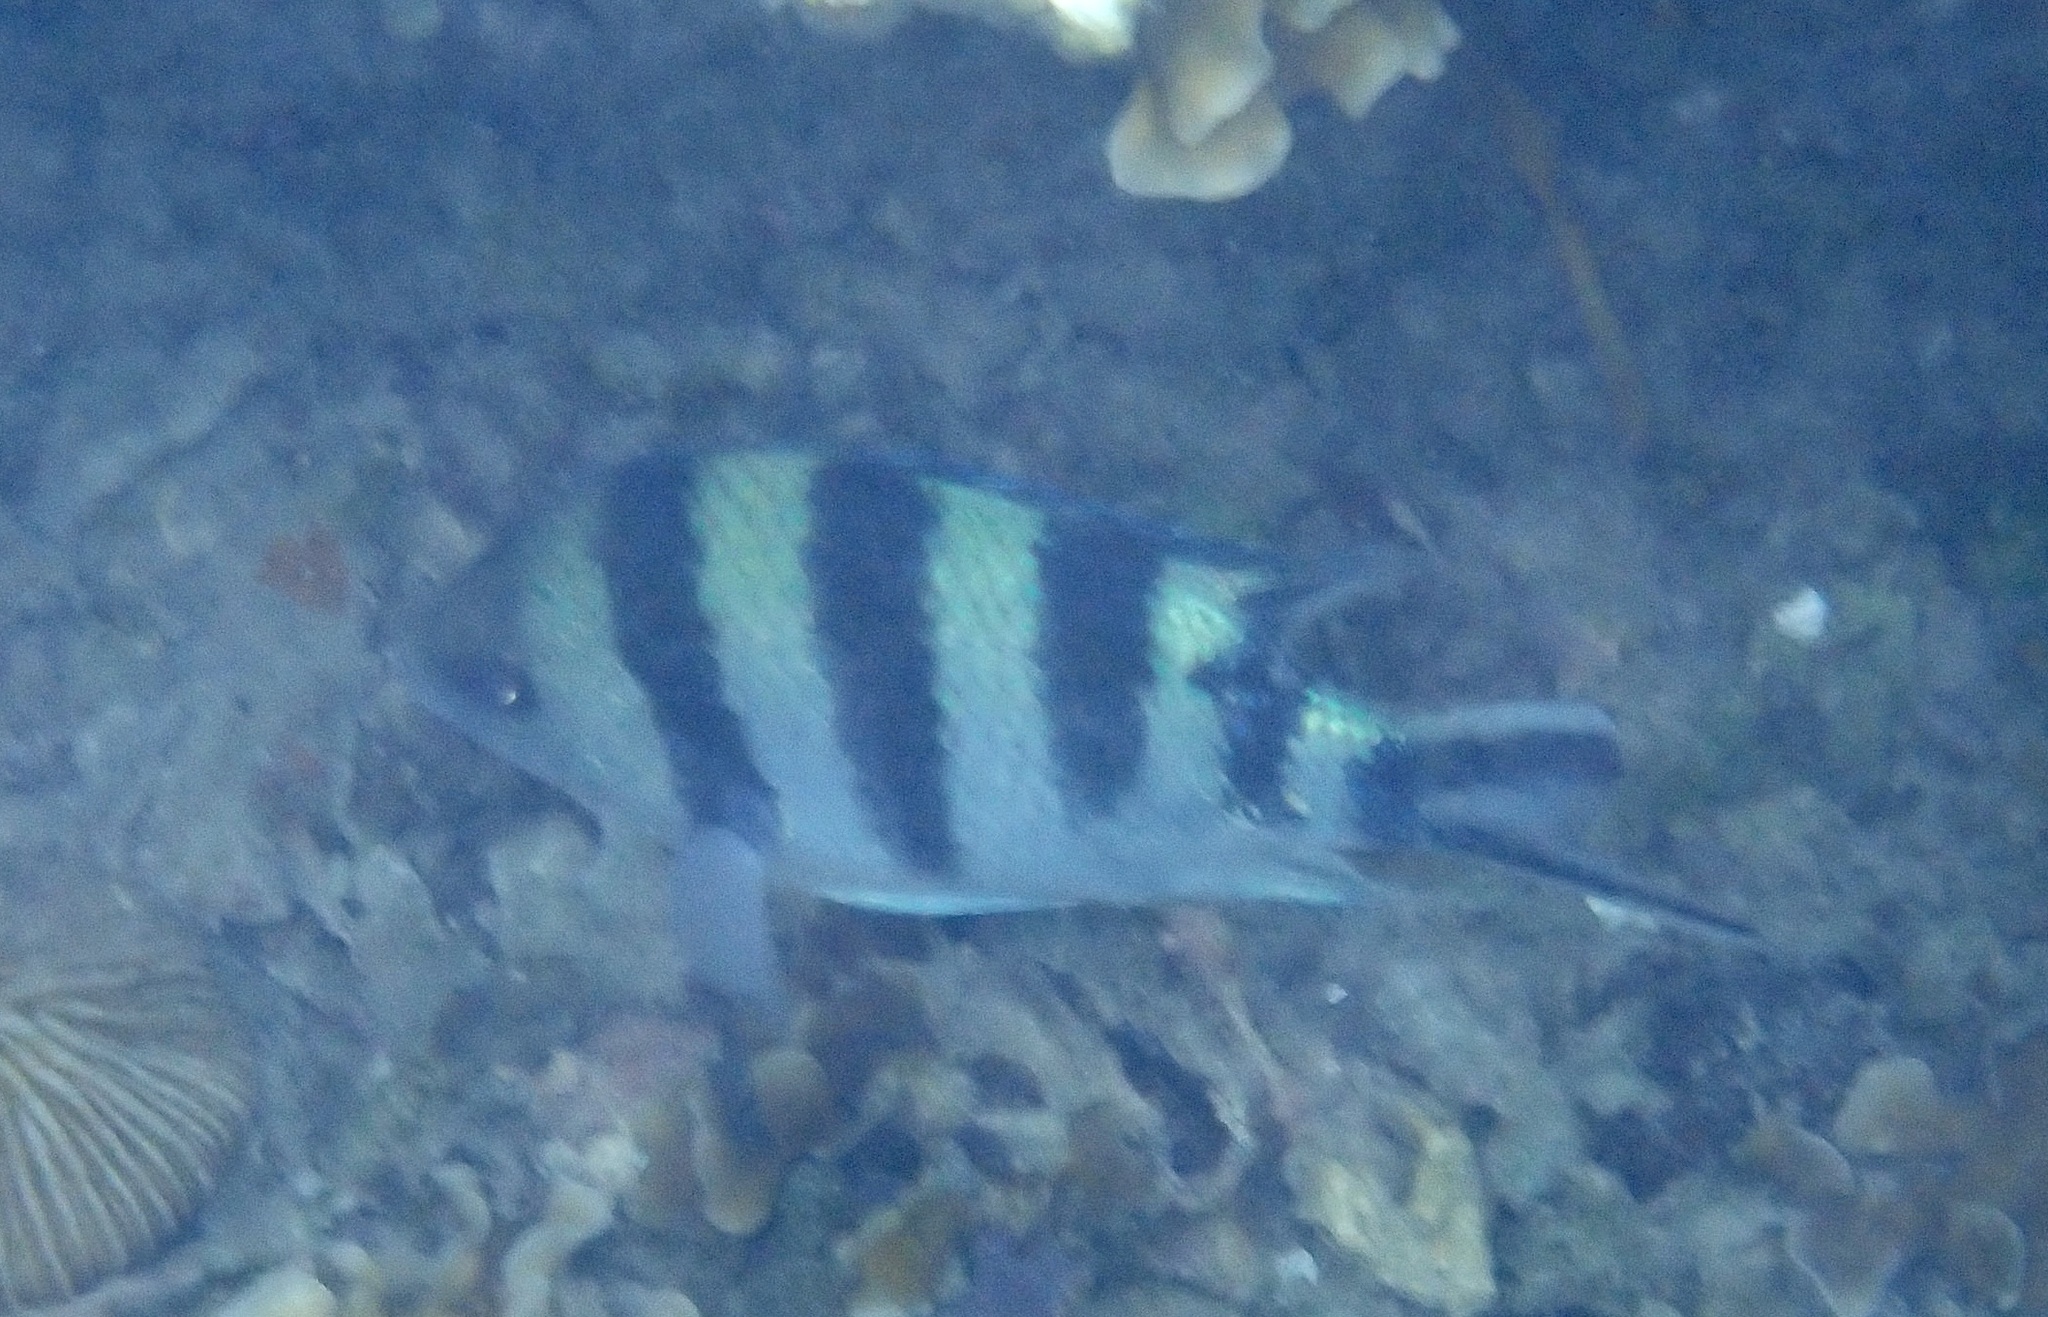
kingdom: Animalia
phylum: Chordata
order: Perciformes
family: Pomacentridae
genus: Abudefduf
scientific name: Abudefduf sexfasciatus
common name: Scissortail sergeant
